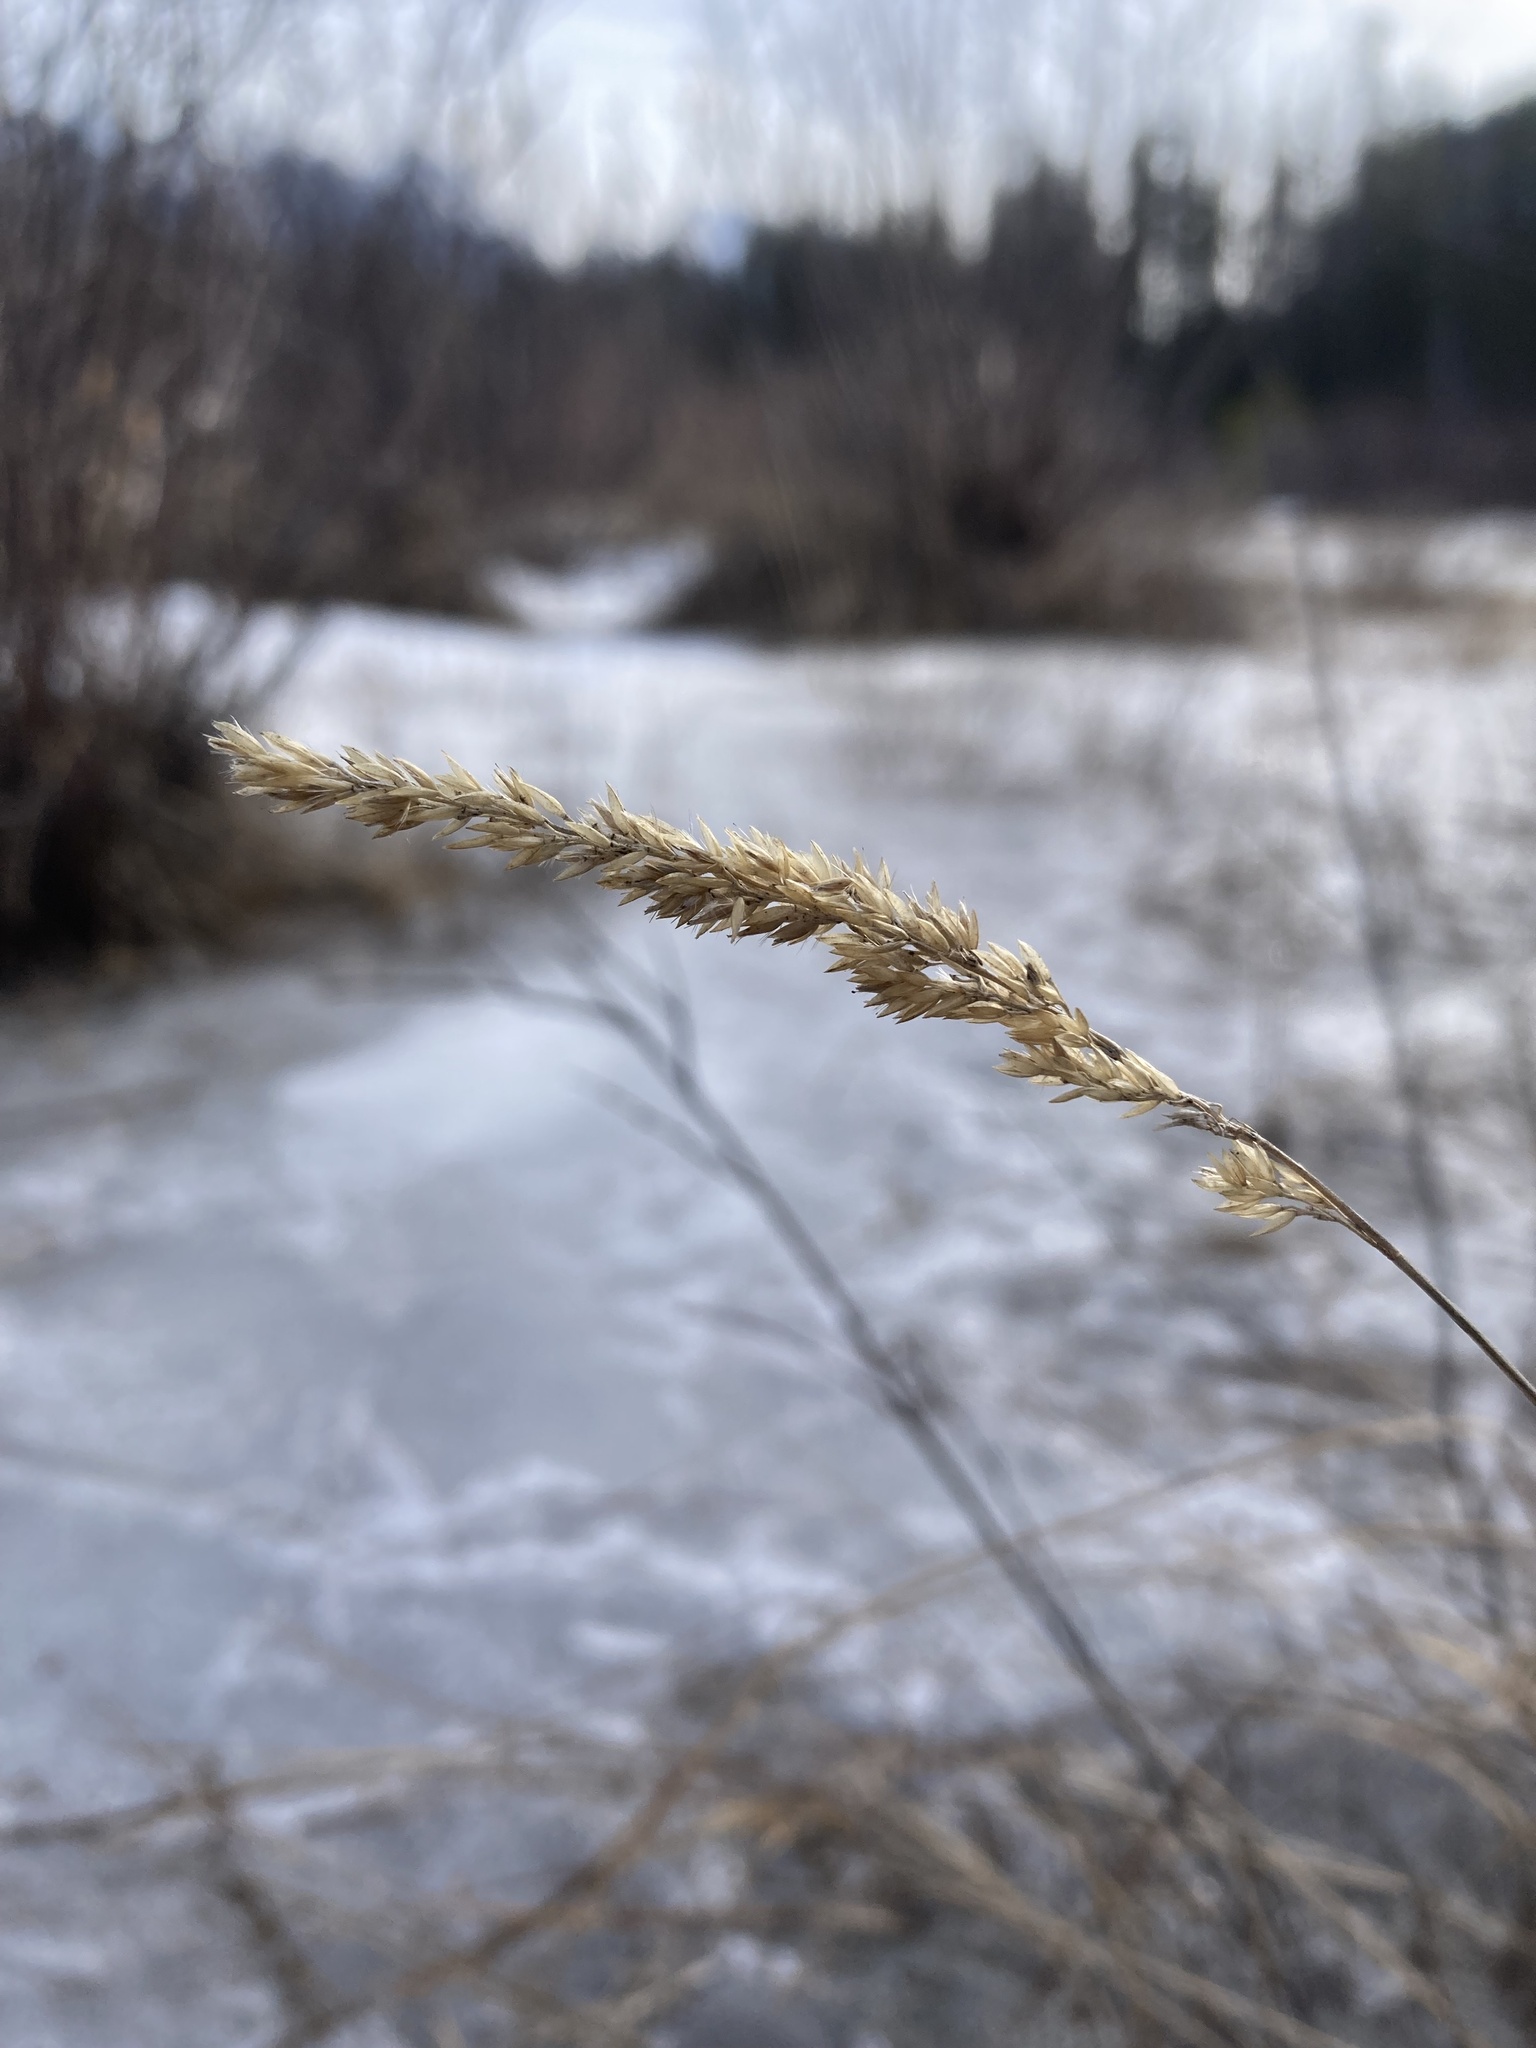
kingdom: Plantae
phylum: Tracheophyta
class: Liliopsida
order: Poales
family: Poaceae
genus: Calamagrostis
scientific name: Calamagrostis stricta
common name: Narrow small-reed
